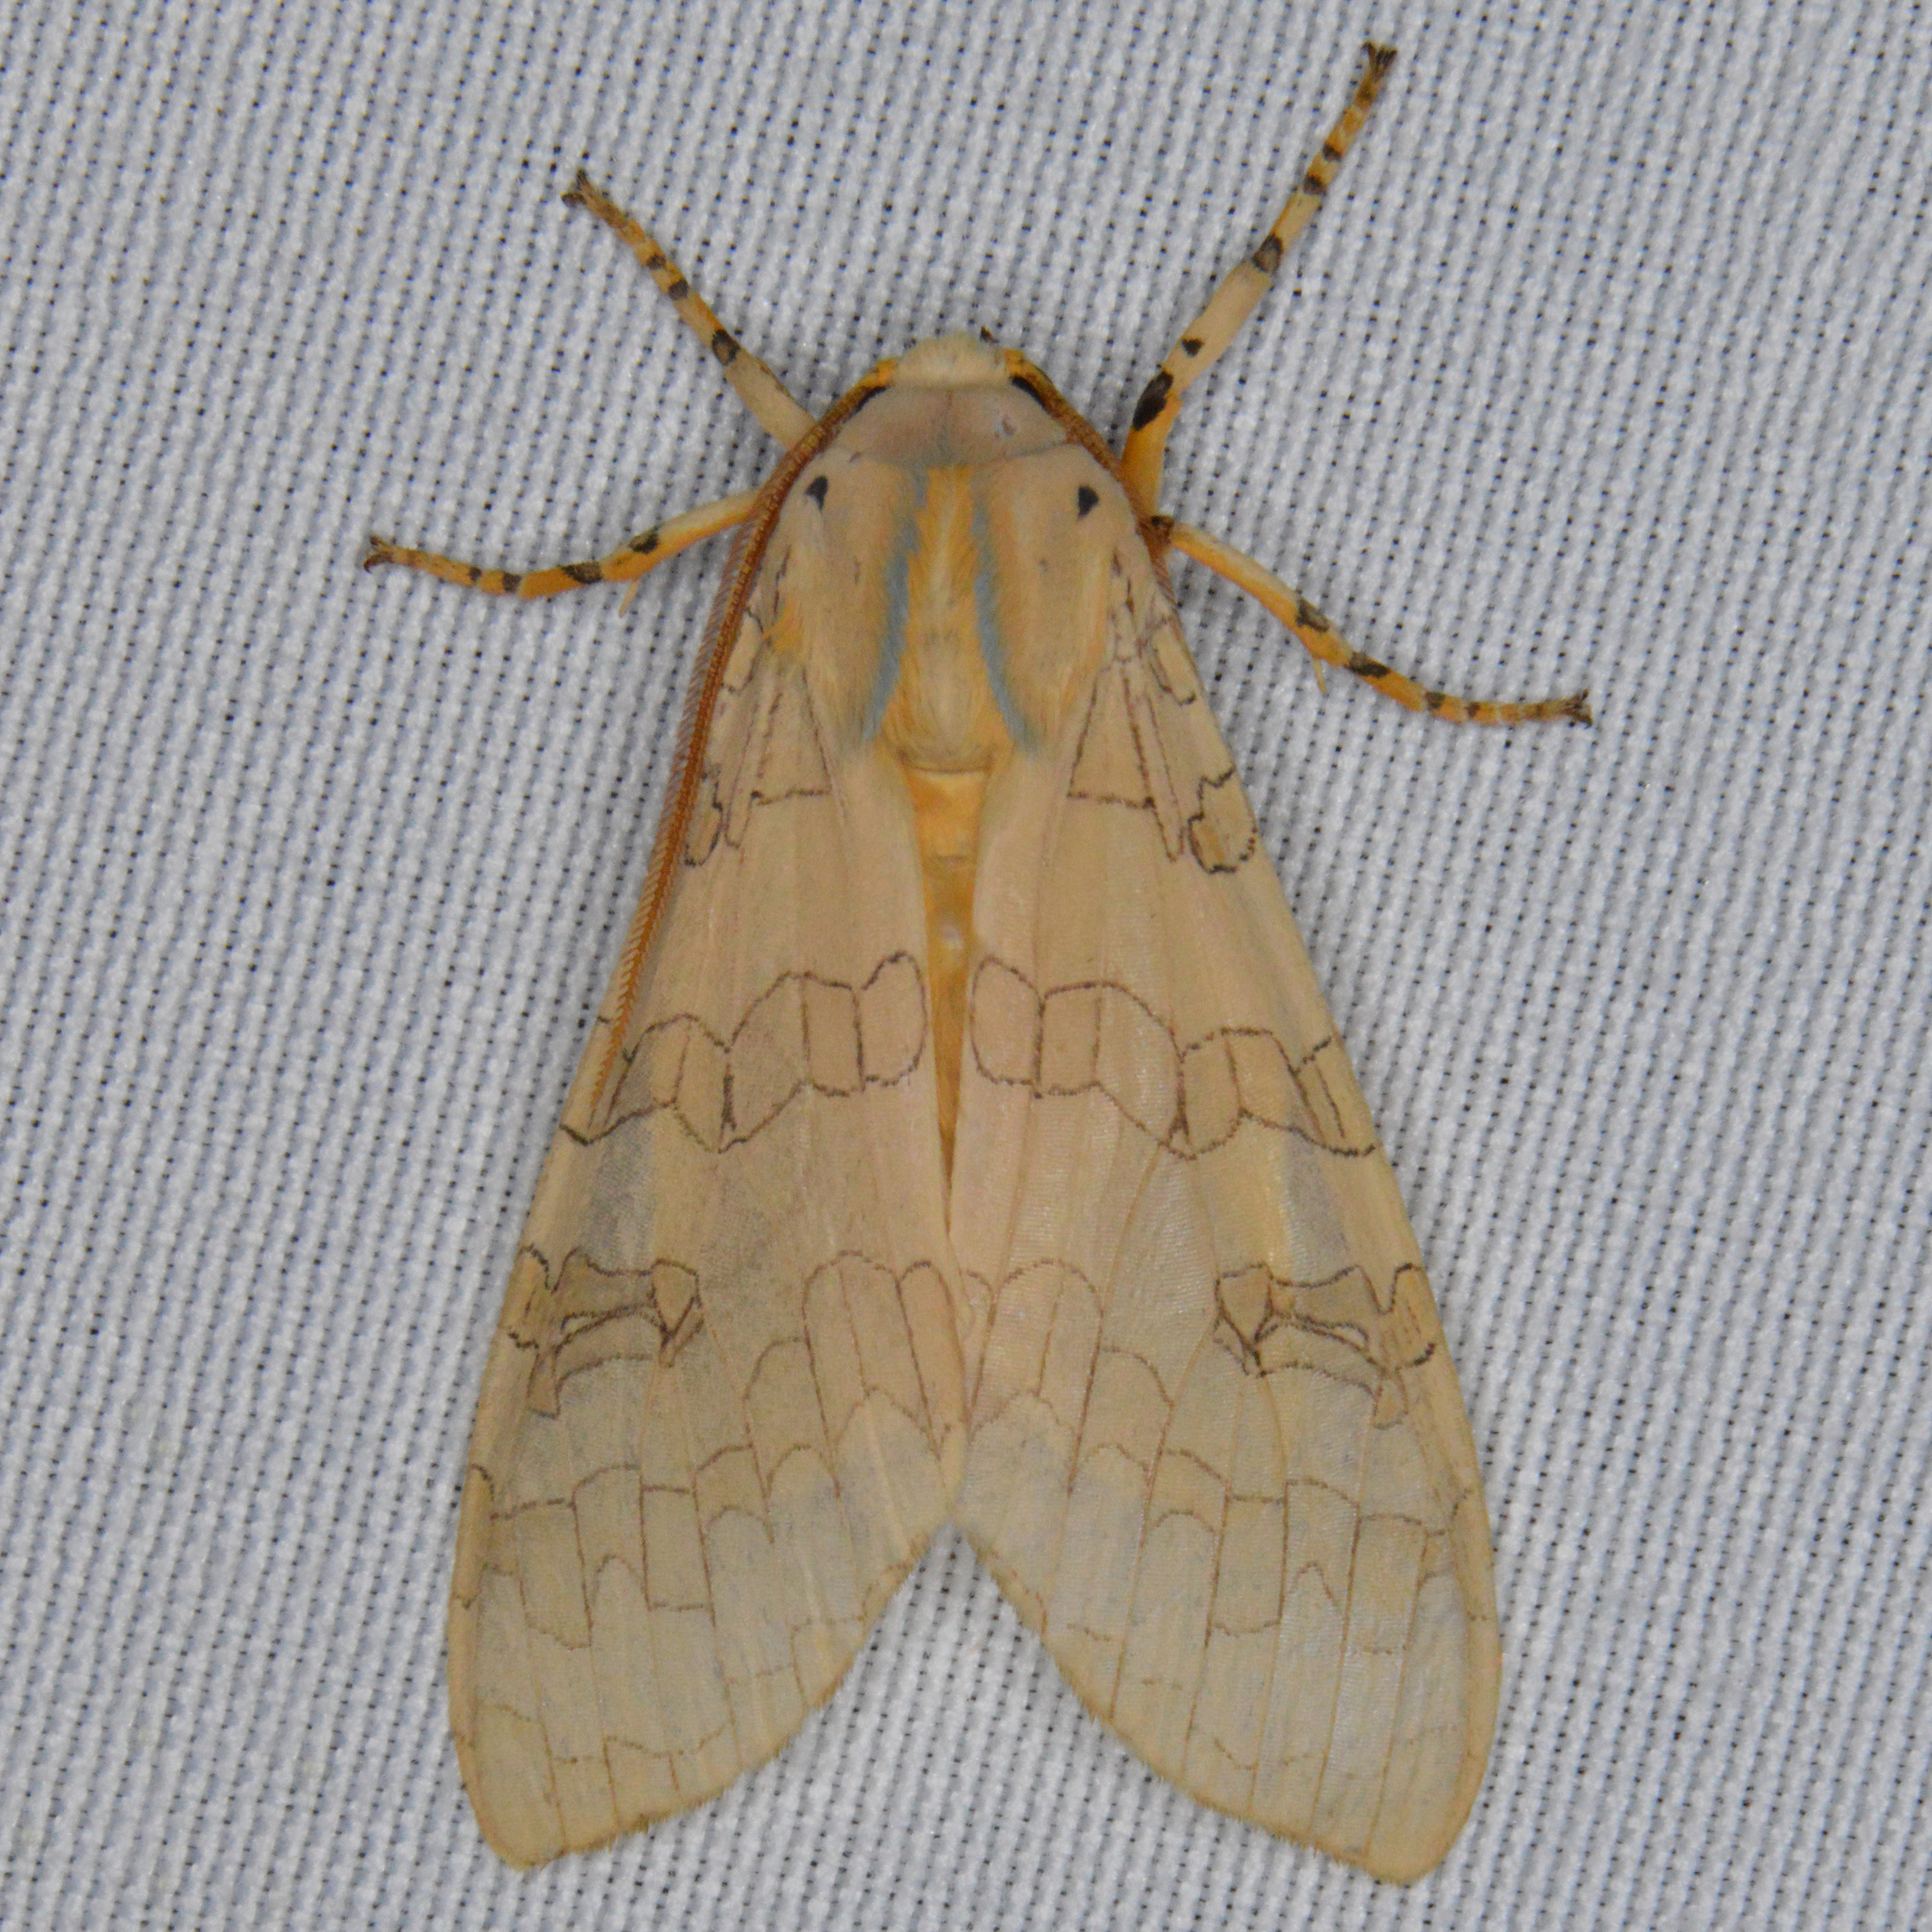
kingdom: Animalia
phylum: Arthropoda
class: Insecta
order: Lepidoptera
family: Erebidae
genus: Halysidota
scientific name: Halysidota tessellaris
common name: Banded tussock moth
